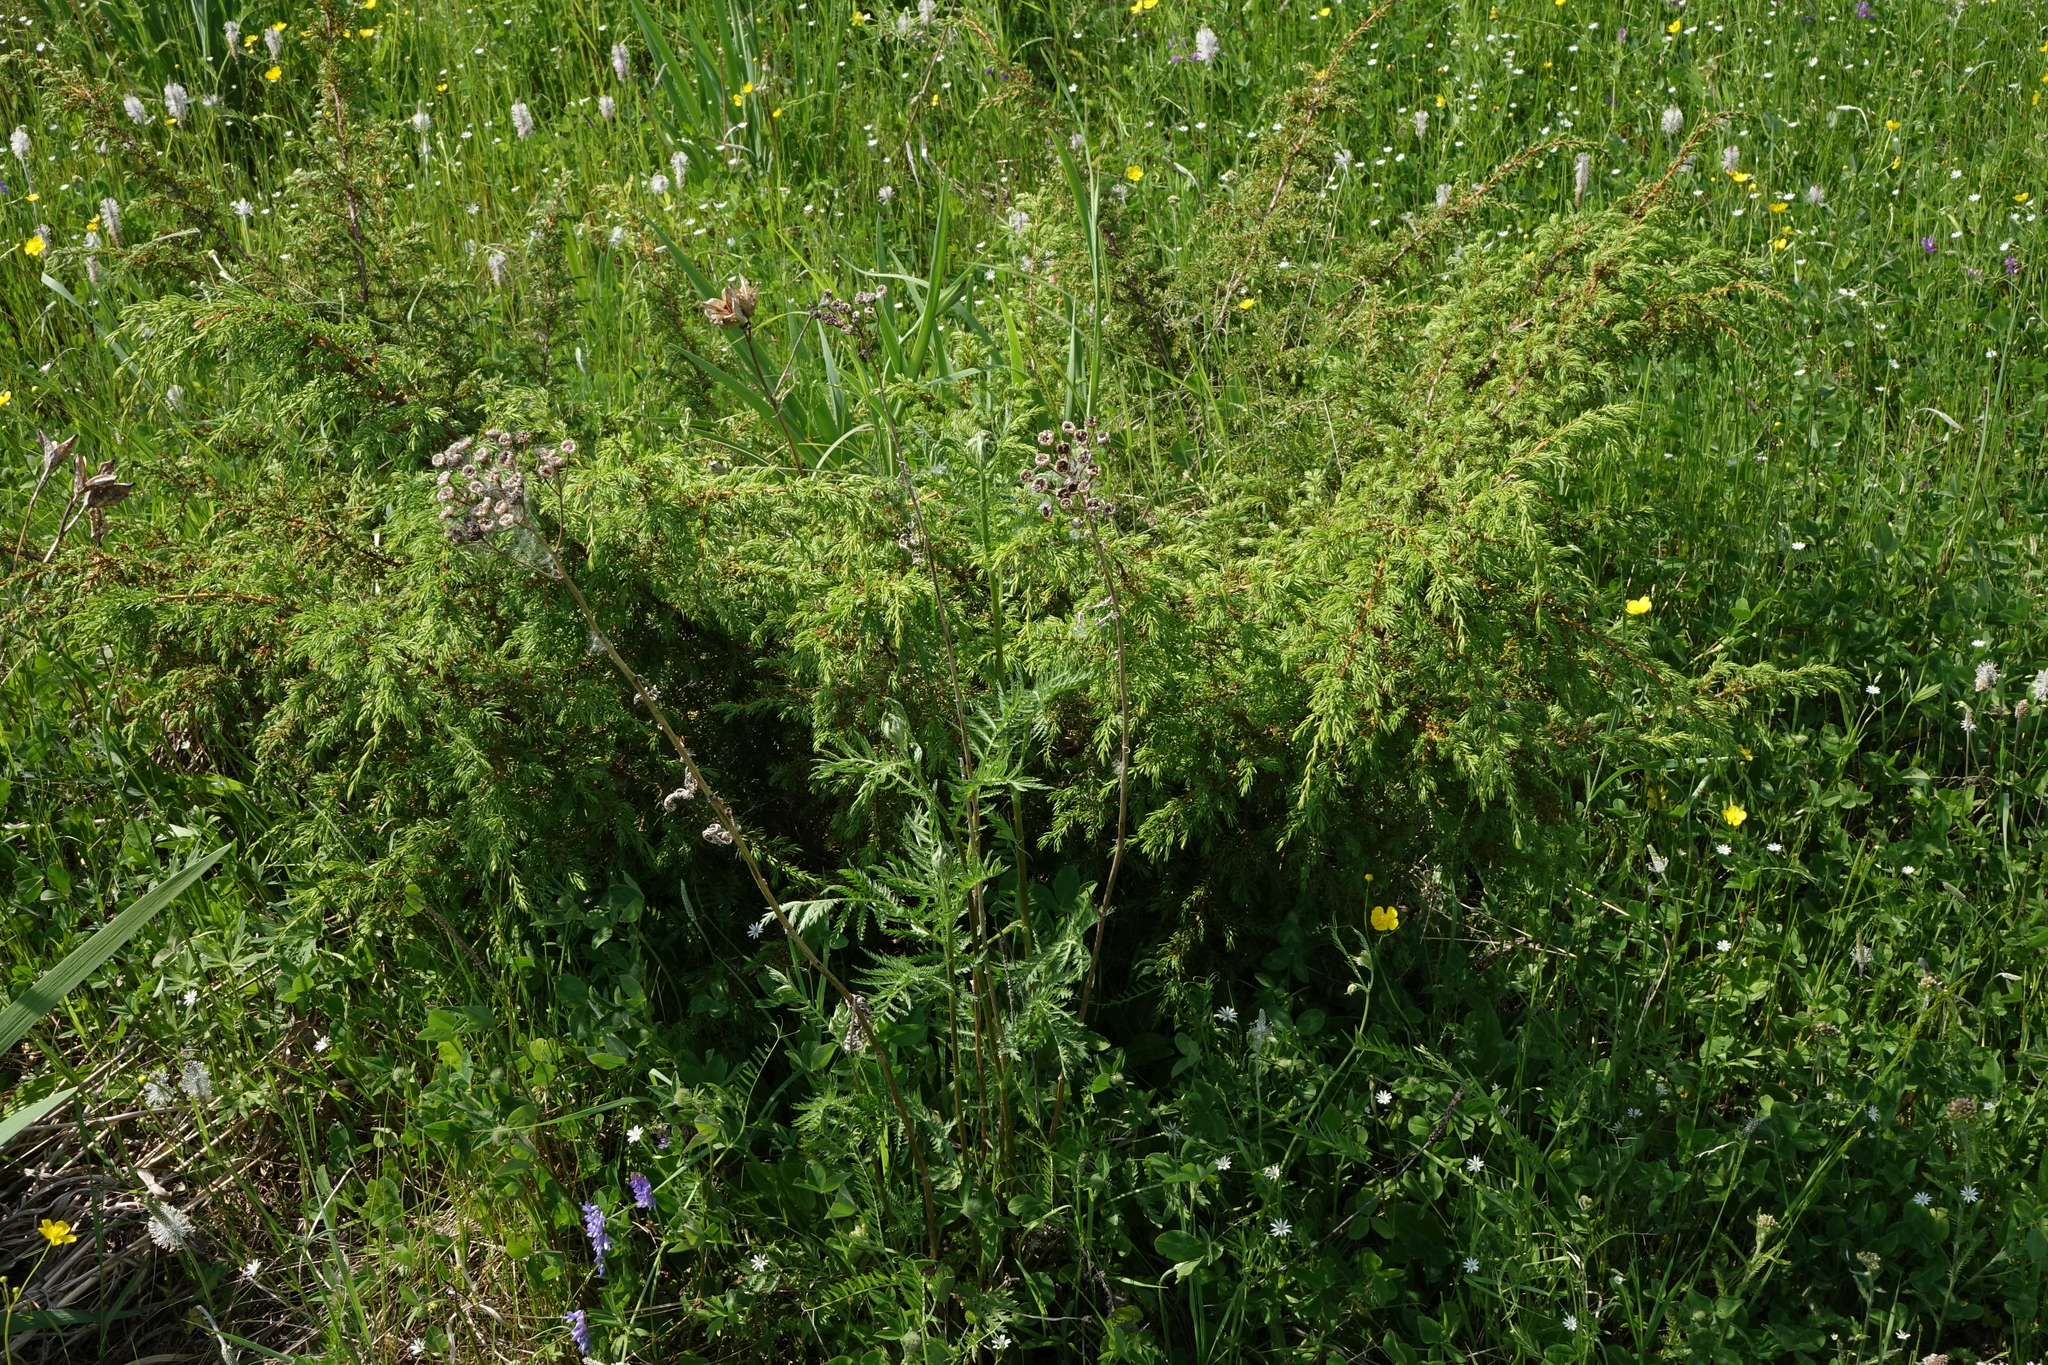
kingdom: Plantae
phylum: Tracheophyta
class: Pinopsida
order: Pinales
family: Cupressaceae
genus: Juniperus
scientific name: Juniperus communis
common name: Common juniper
